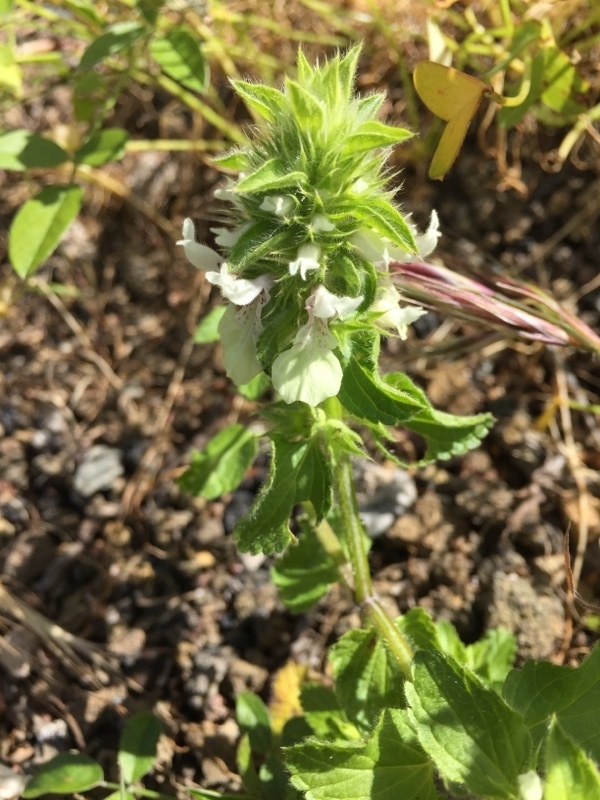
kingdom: Plantae
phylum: Tracheophyta
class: Magnoliopsida
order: Lamiales
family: Lamiaceae
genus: Stachys
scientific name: Stachys ocymastrum
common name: Italian hedgenettle
